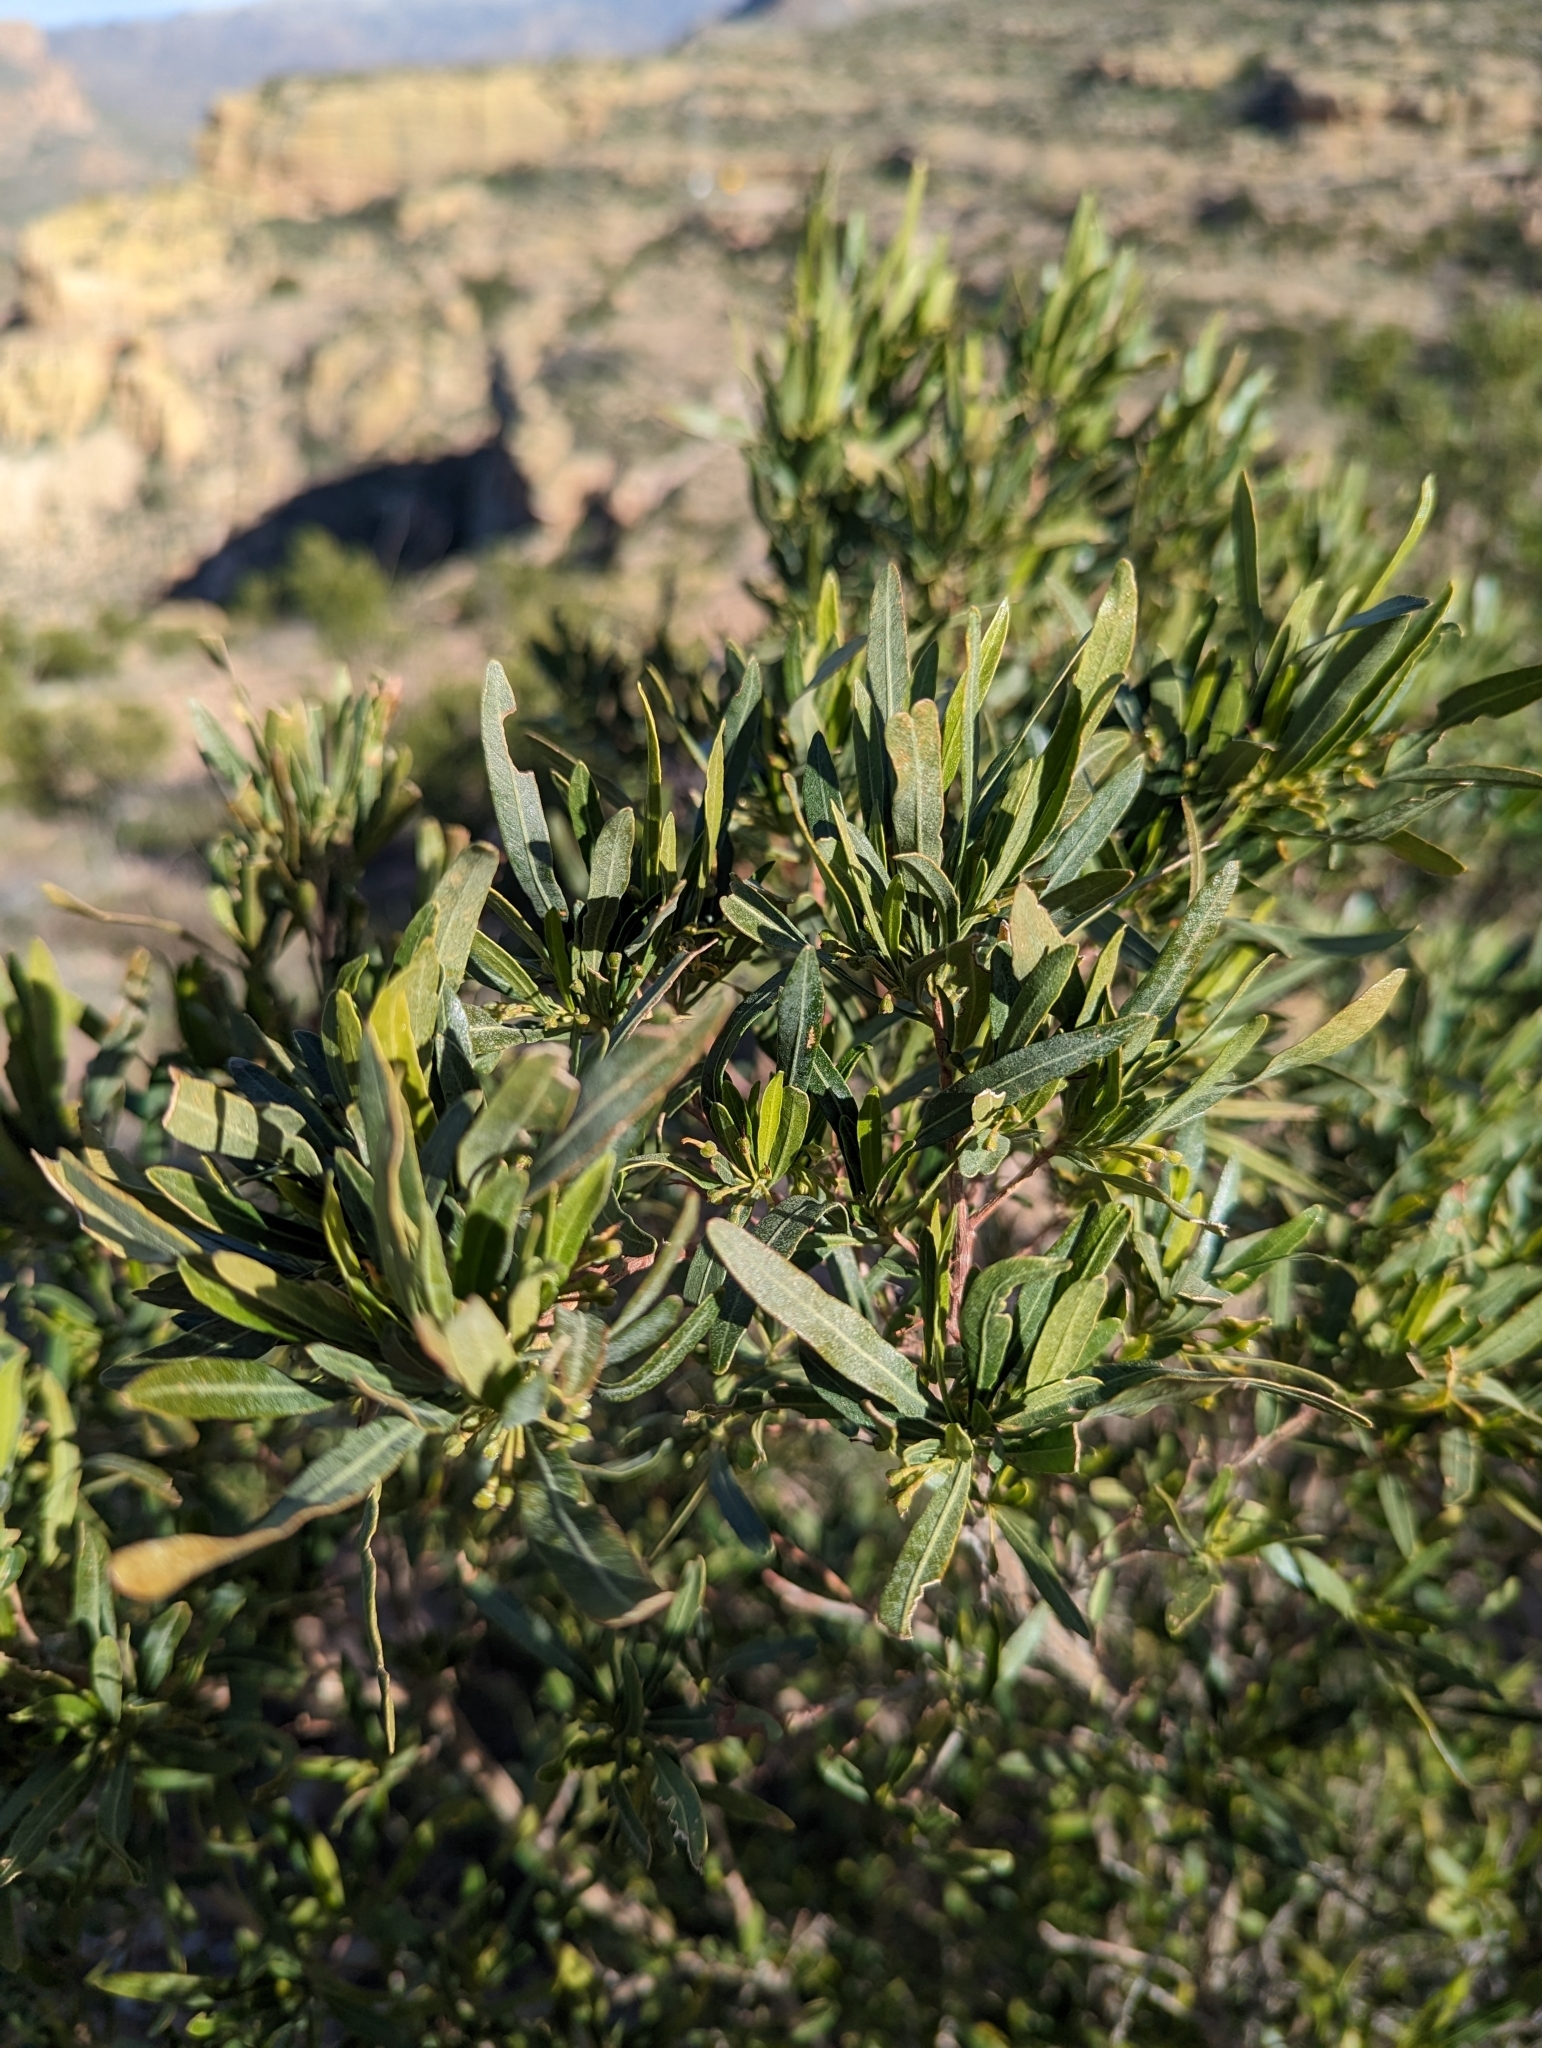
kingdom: Plantae
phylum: Tracheophyta
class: Magnoliopsida
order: Sapindales
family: Sapindaceae
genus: Dodonaea
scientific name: Dodonaea viscosa
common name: Hopbush
